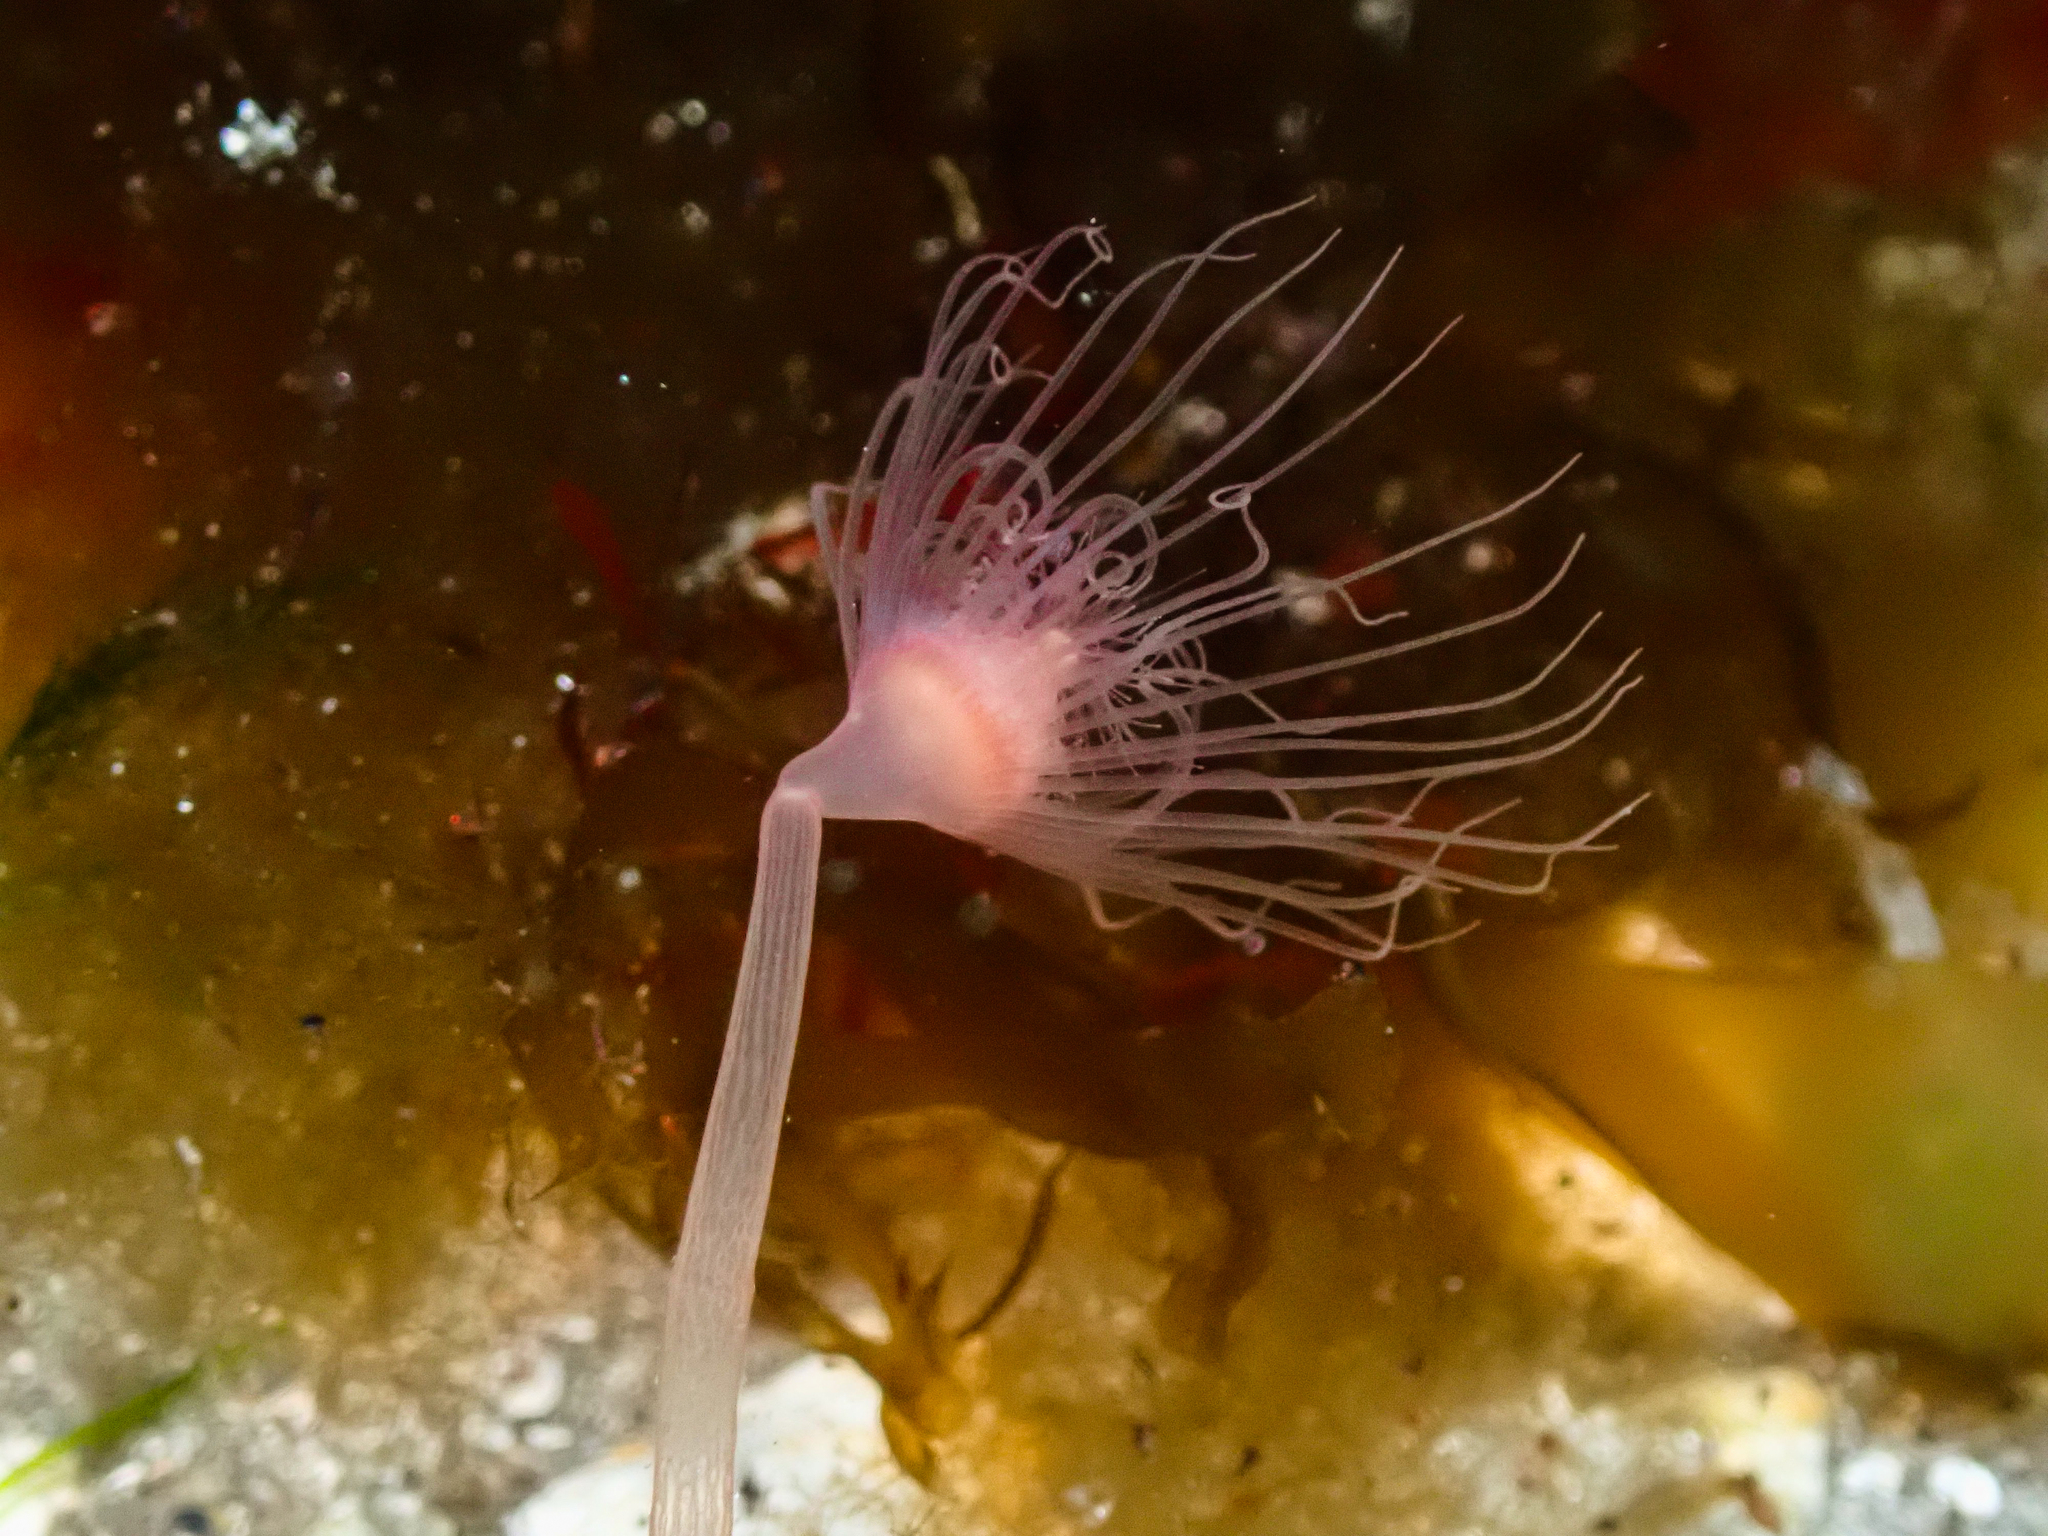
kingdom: Animalia
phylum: Cnidaria
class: Hydrozoa
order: Anthoathecata
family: Corymorphidae
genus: Corymorpha
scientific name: Corymorpha nutans
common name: Nodding hydroid
